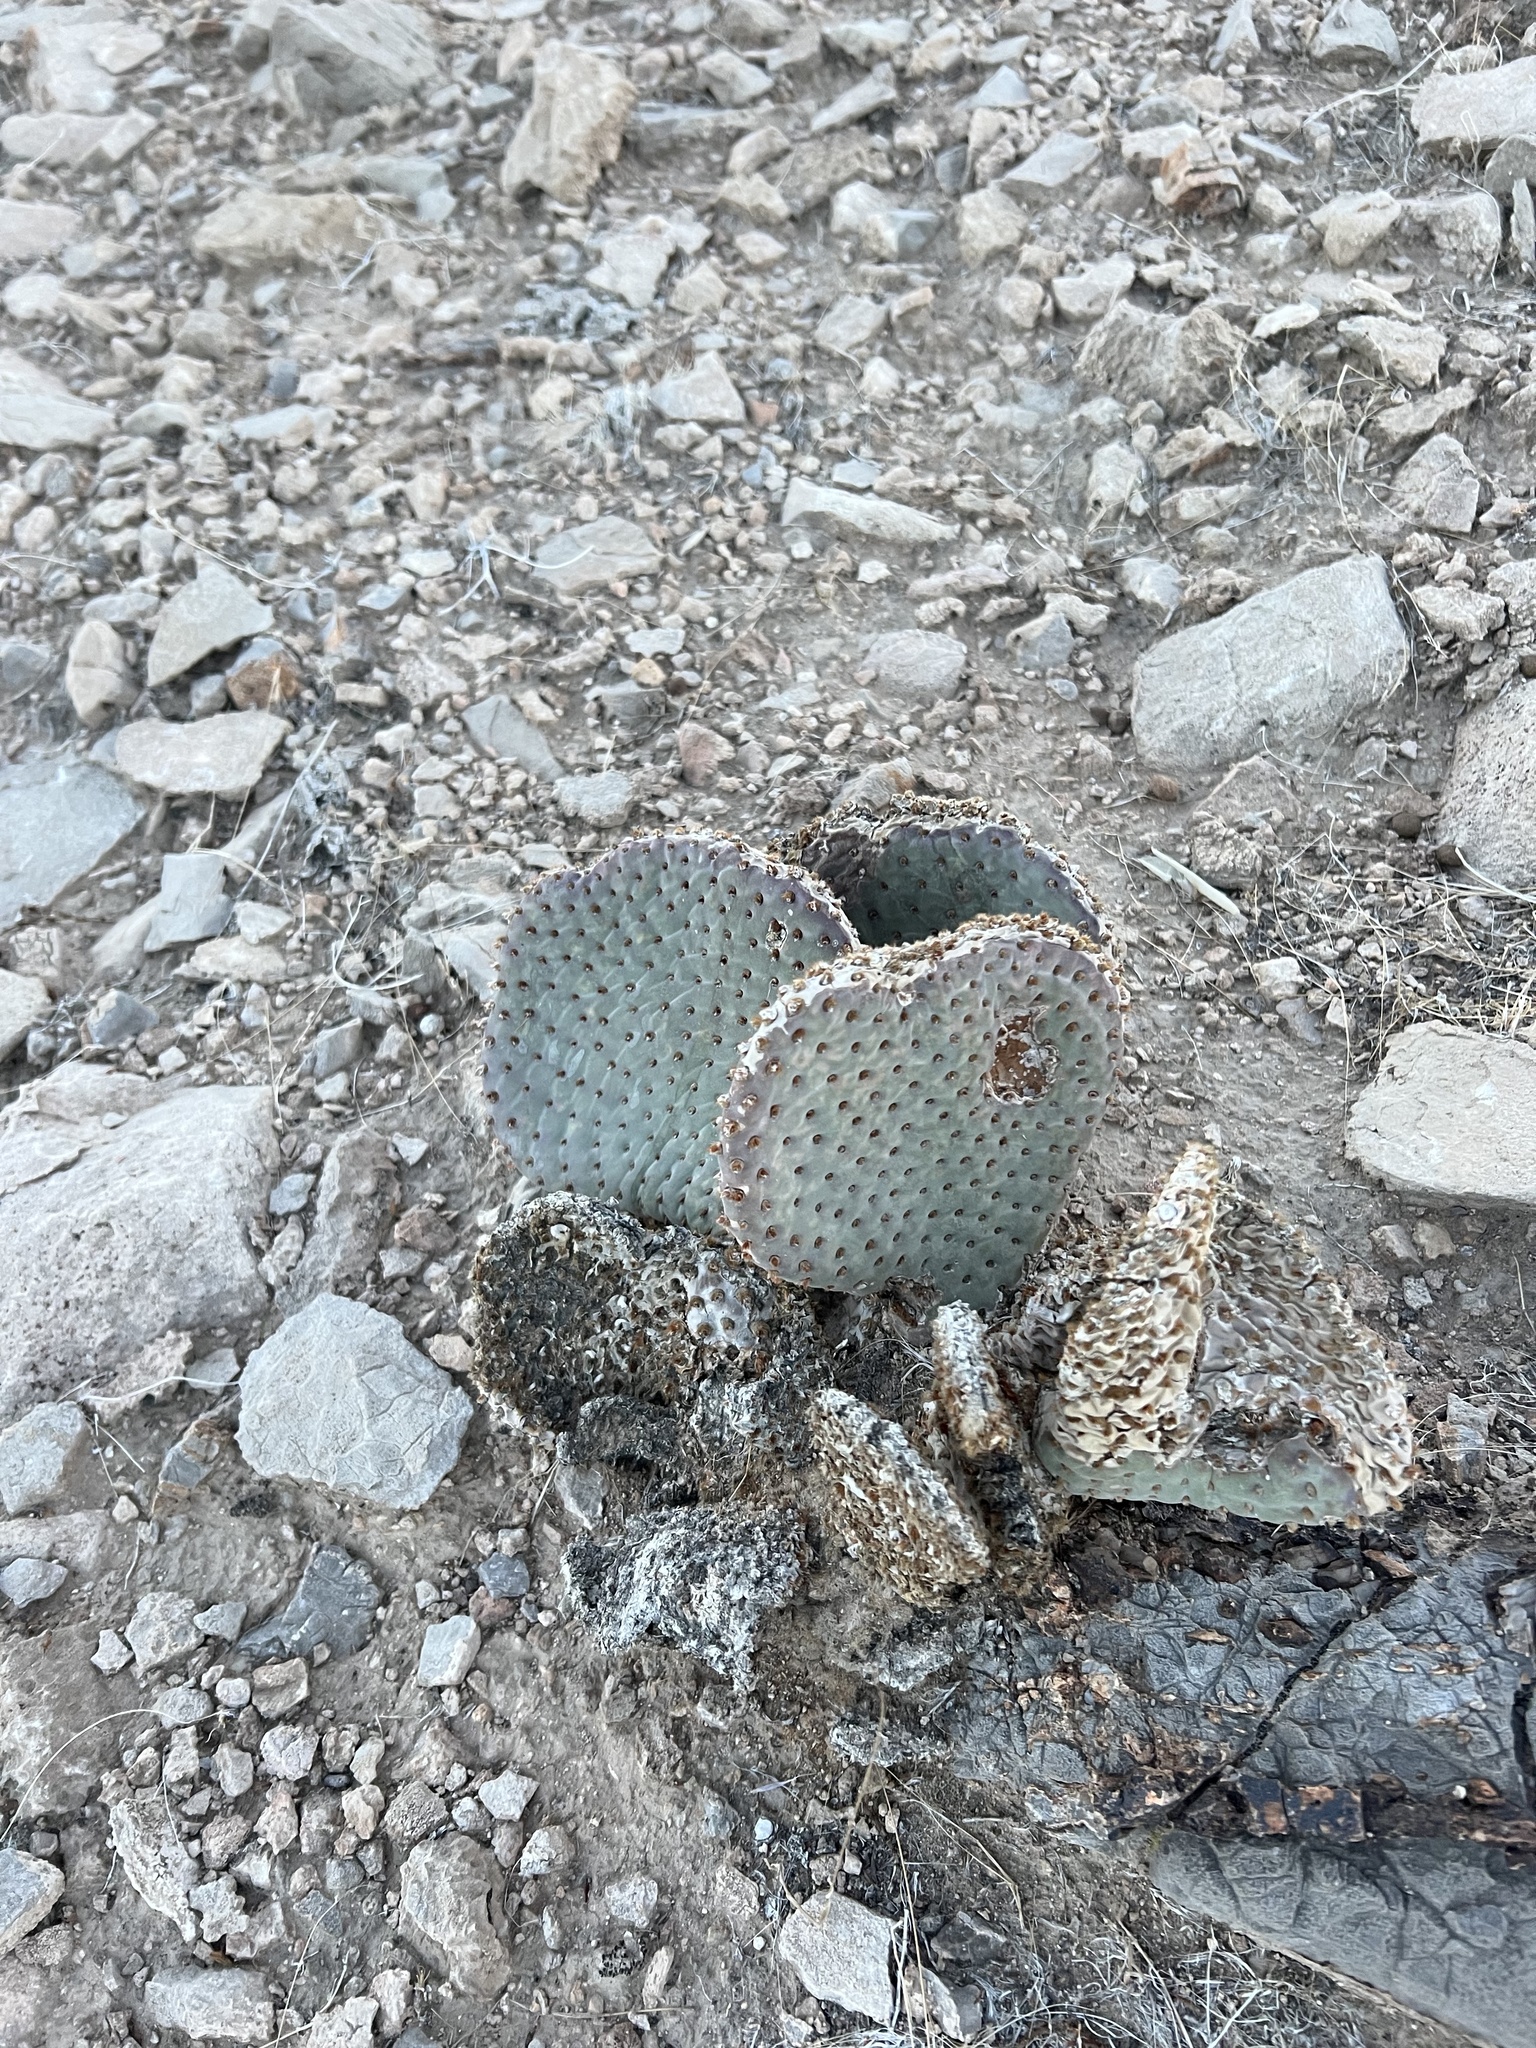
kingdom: Plantae
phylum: Tracheophyta
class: Magnoliopsida
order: Caryophyllales
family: Cactaceae
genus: Opuntia
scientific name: Opuntia basilaris
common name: Beavertail prickly-pear
